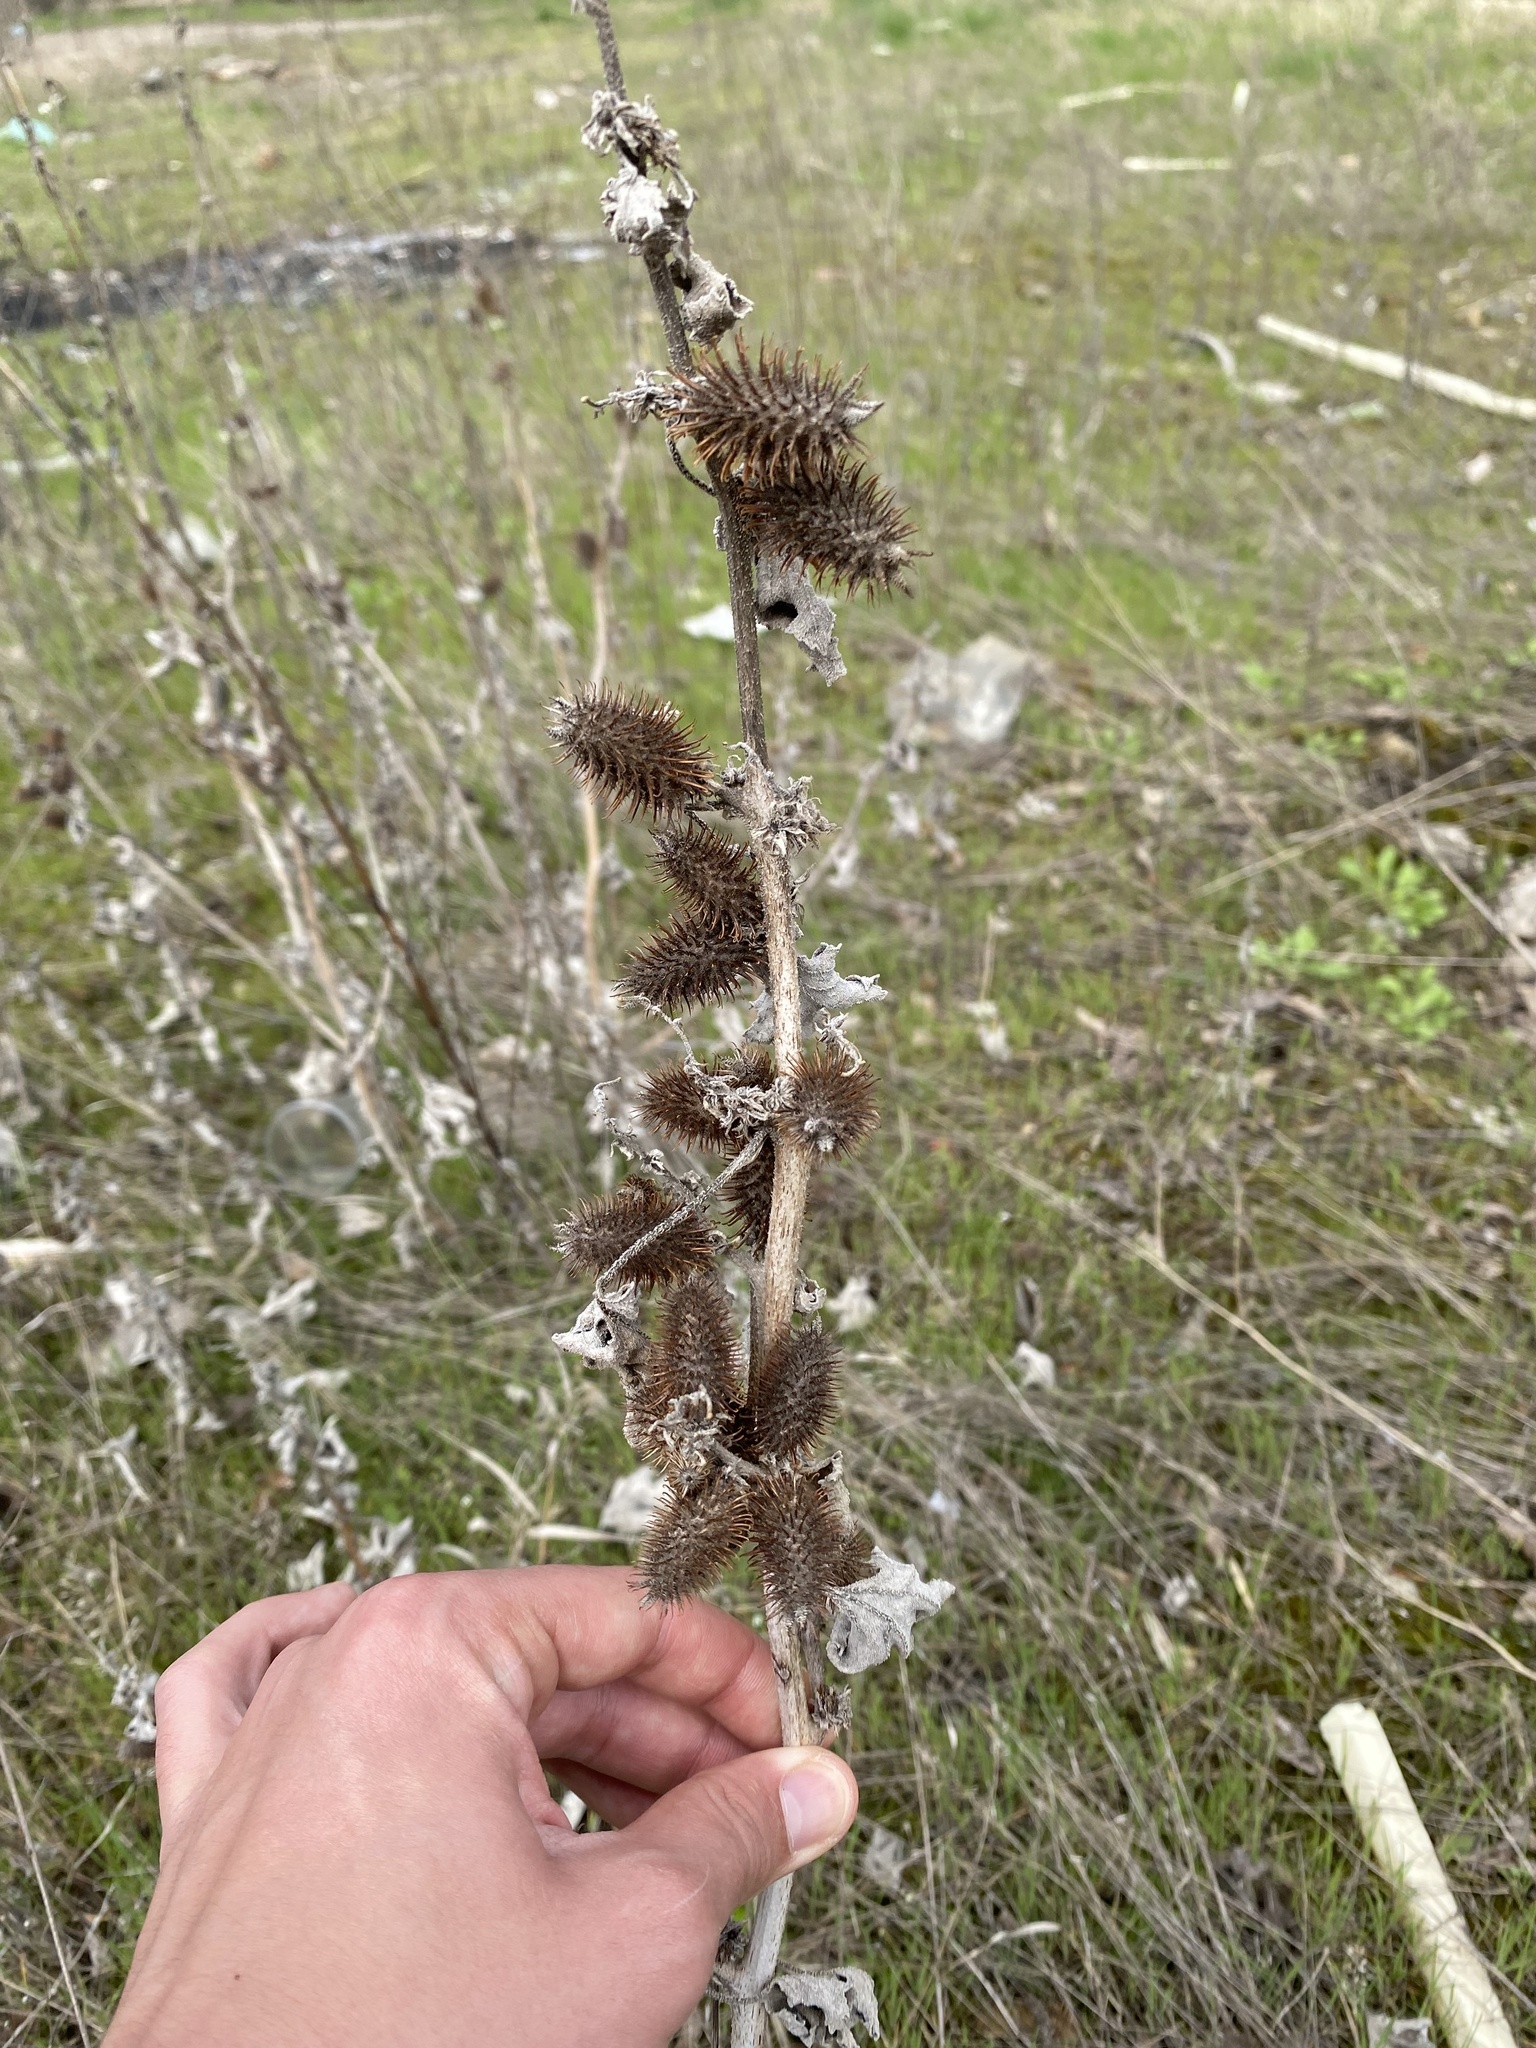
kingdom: Plantae
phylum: Tracheophyta
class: Magnoliopsida
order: Asterales
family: Asteraceae
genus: Xanthium
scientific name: Xanthium orientale
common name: Californian burr
